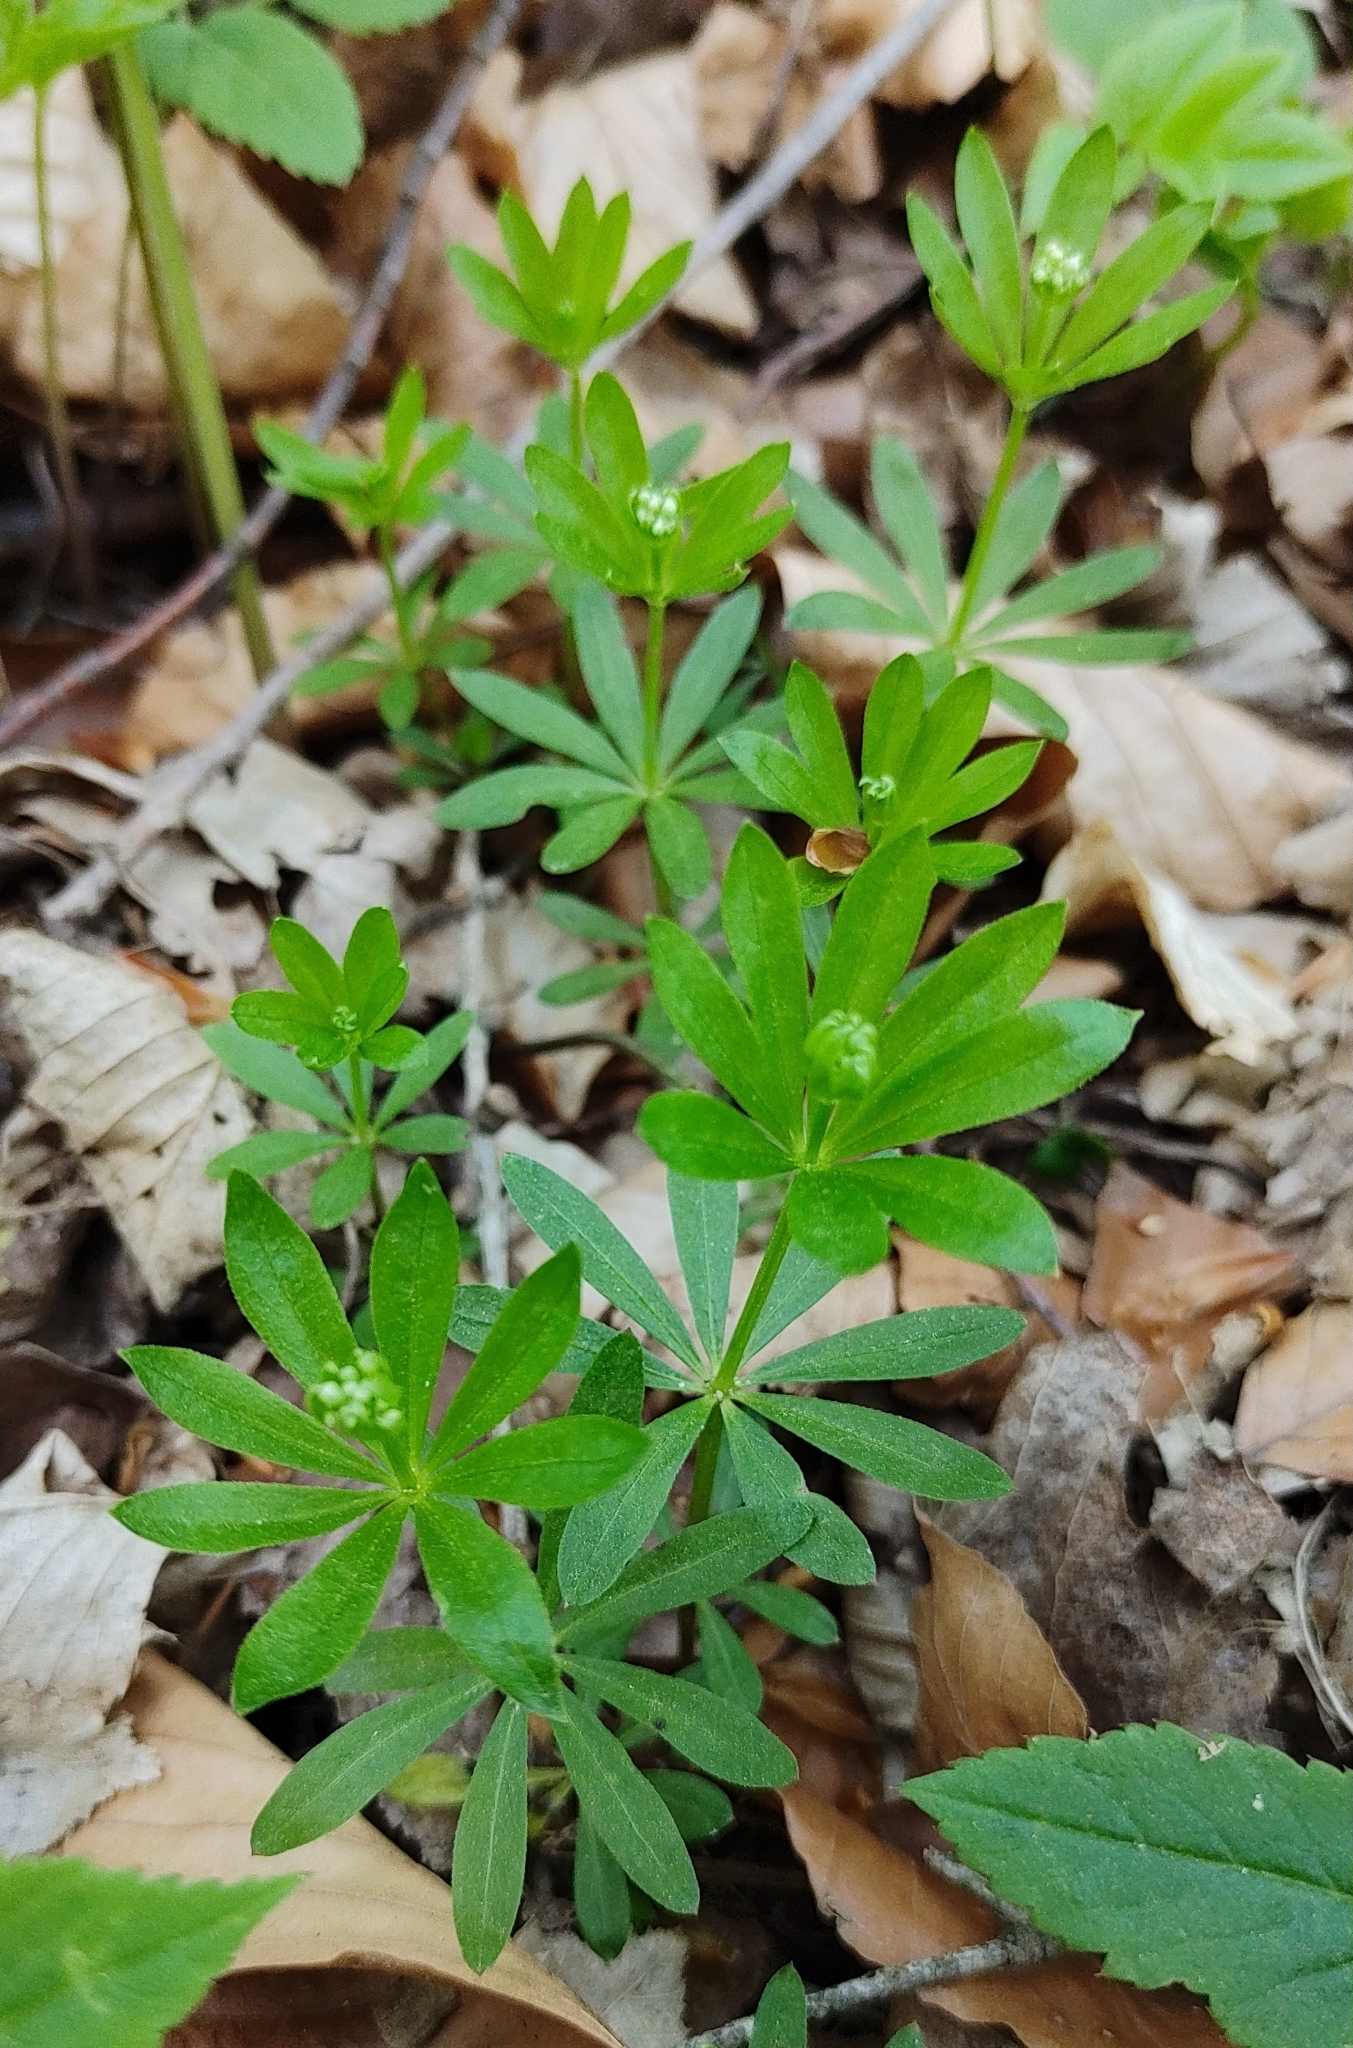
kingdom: Plantae
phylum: Tracheophyta
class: Magnoliopsida
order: Gentianales
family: Rubiaceae
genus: Galium
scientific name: Galium odoratum
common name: Sweet woodruff
